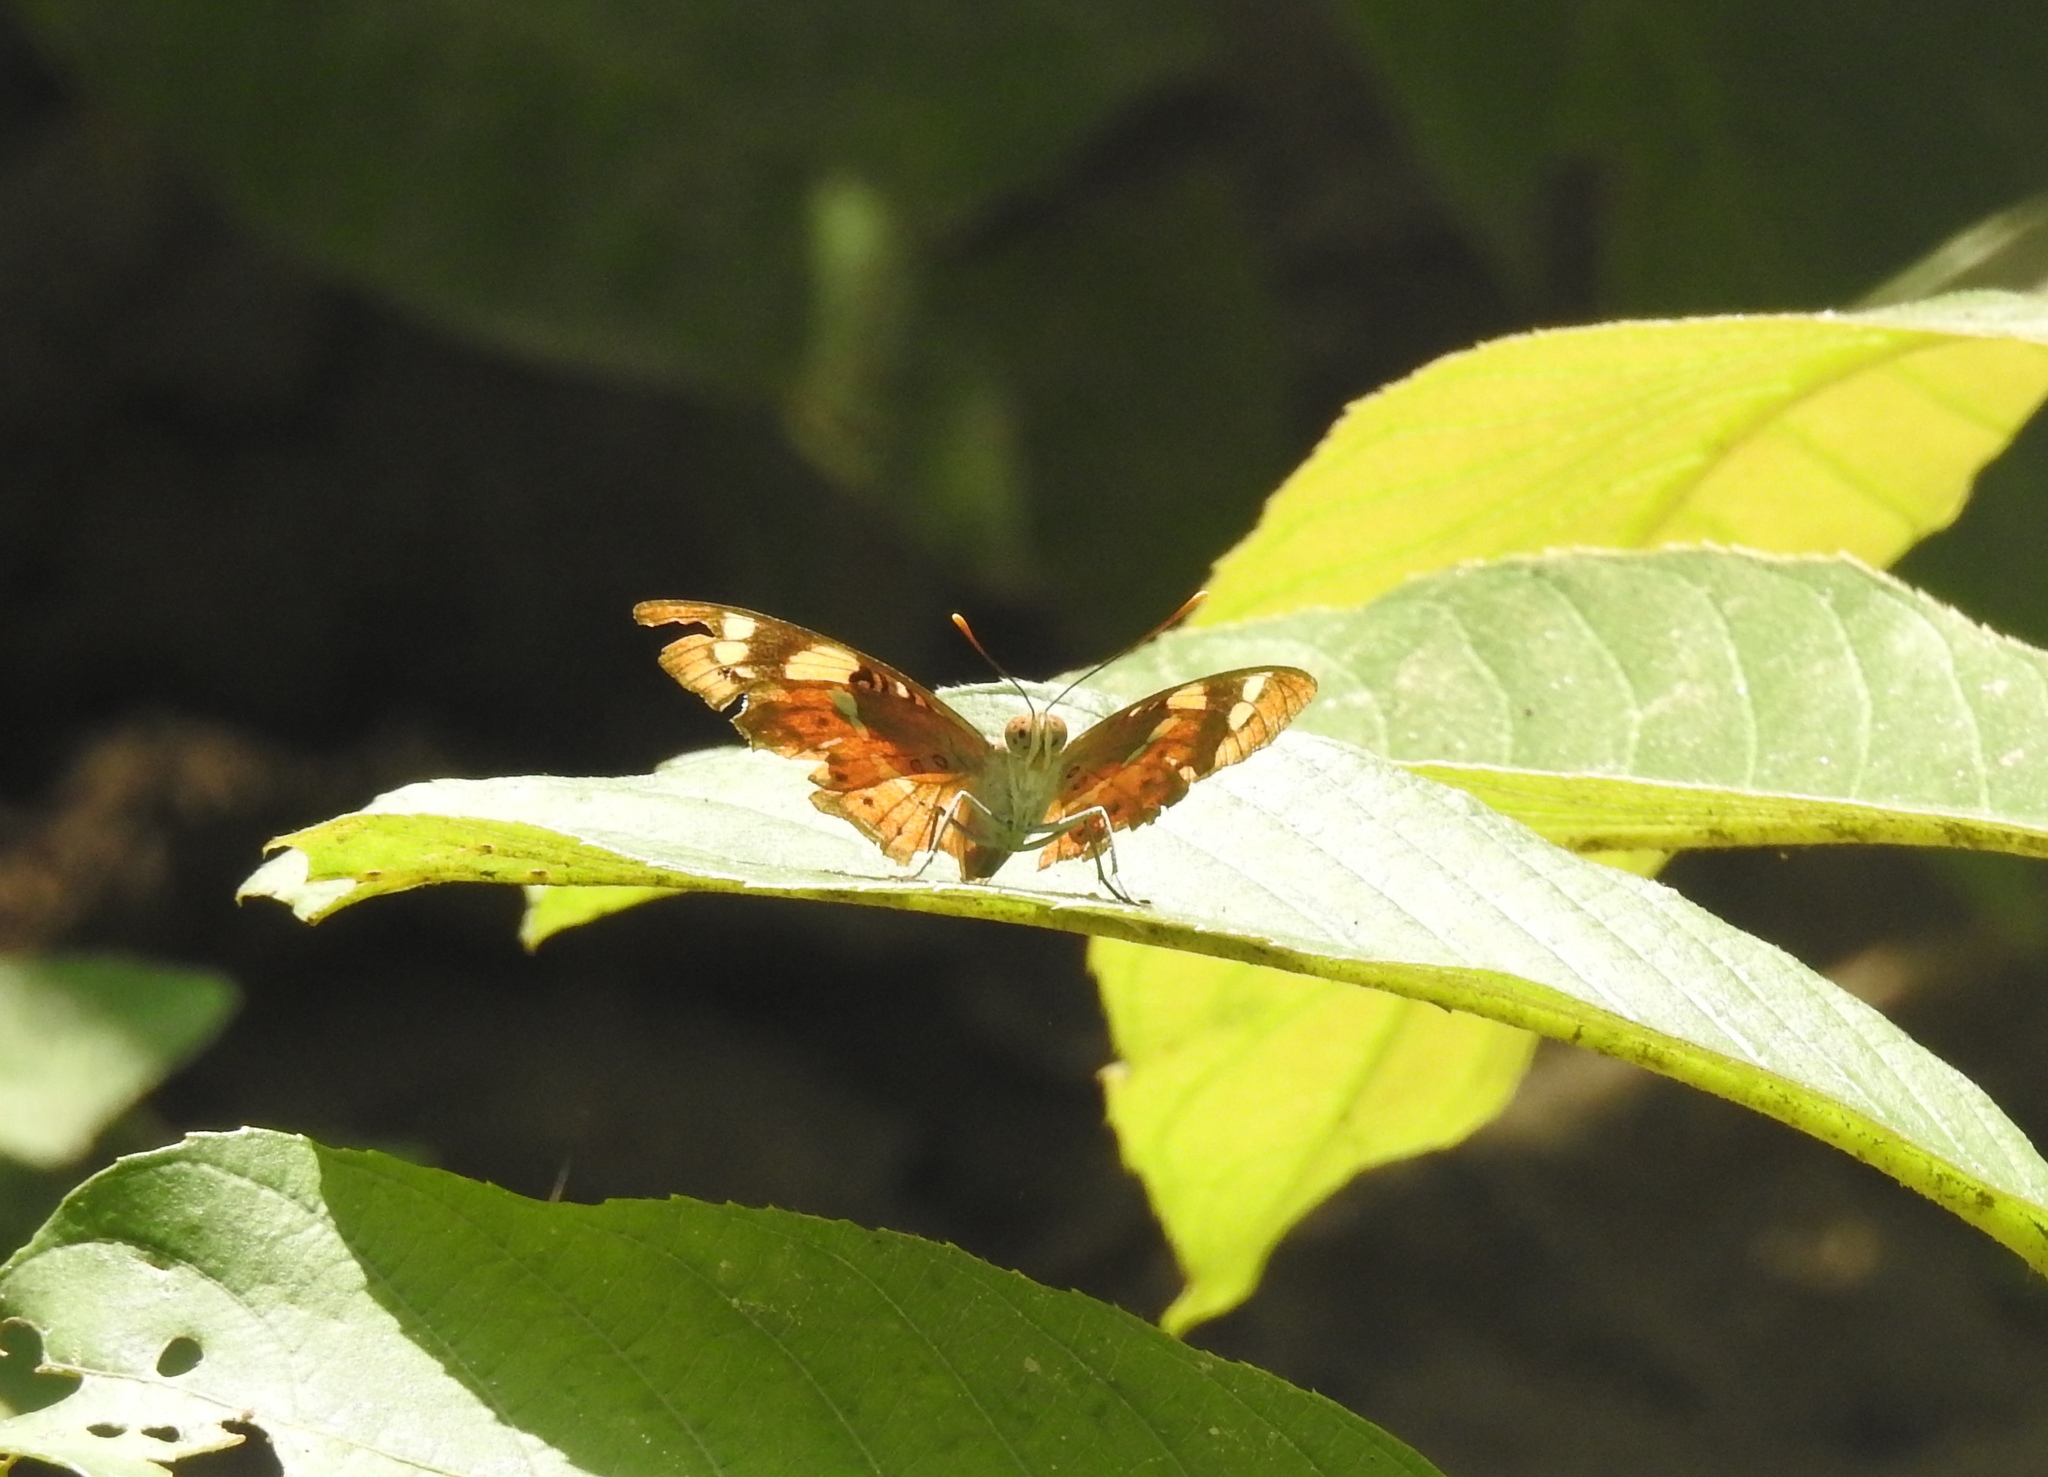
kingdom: Animalia
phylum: Arthropoda
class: Insecta
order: Lepidoptera
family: Nymphalidae
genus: Euthalia
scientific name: Euthalia nais
